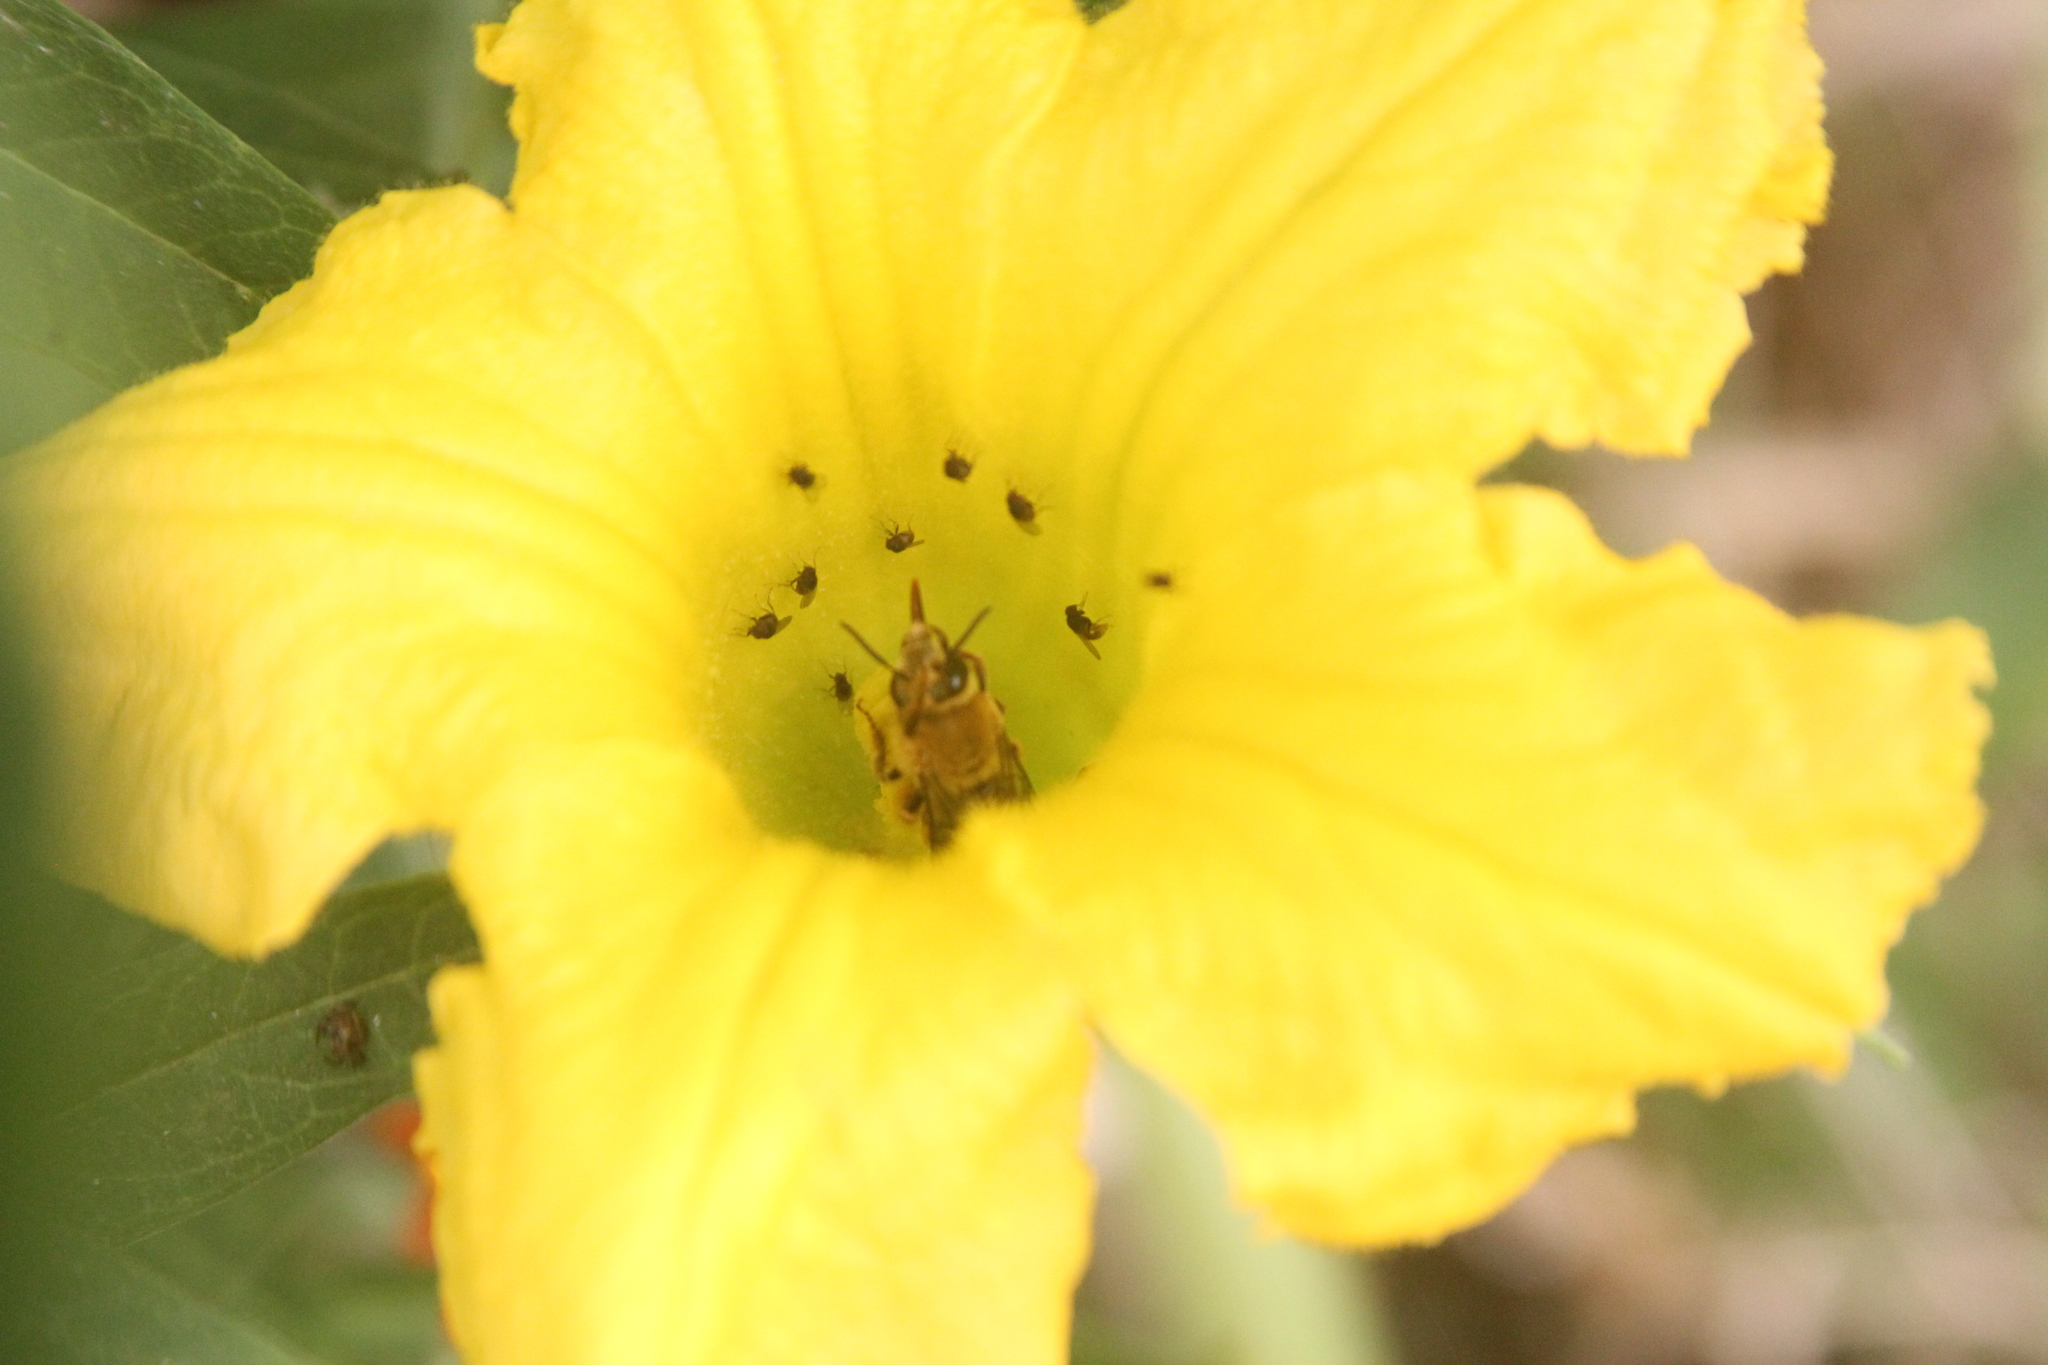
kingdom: Animalia
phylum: Arthropoda
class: Insecta
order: Hymenoptera
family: Apidae
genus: Peponapis
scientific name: Peponapis pruinosa
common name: Pruinose squash bee
